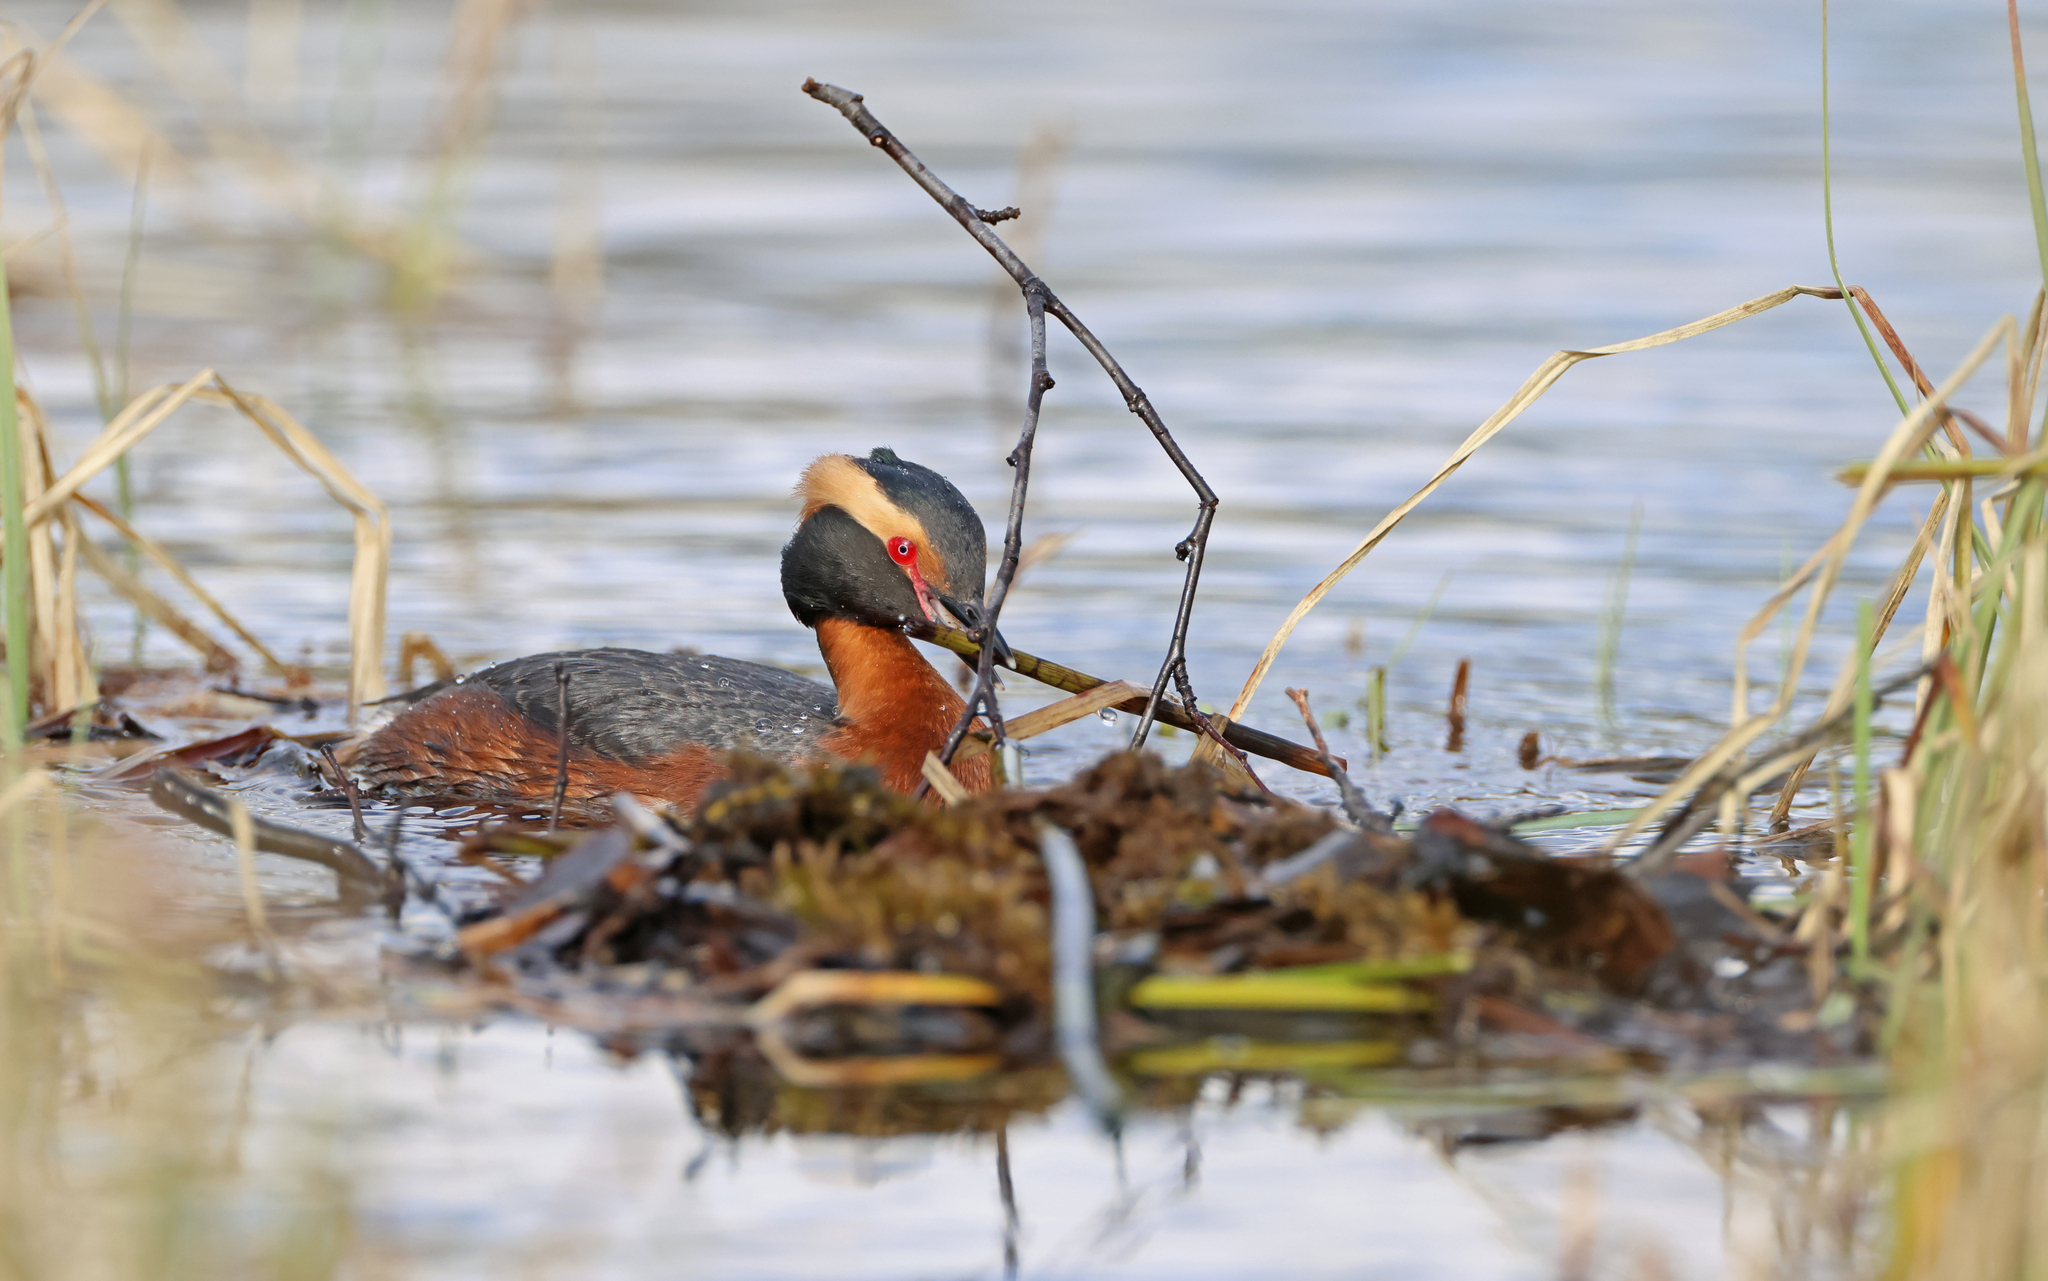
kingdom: Animalia
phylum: Chordata
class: Aves
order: Podicipediformes
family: Podicipedidae
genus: Podiceps
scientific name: Podiceps auritus
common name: Horned grebe
